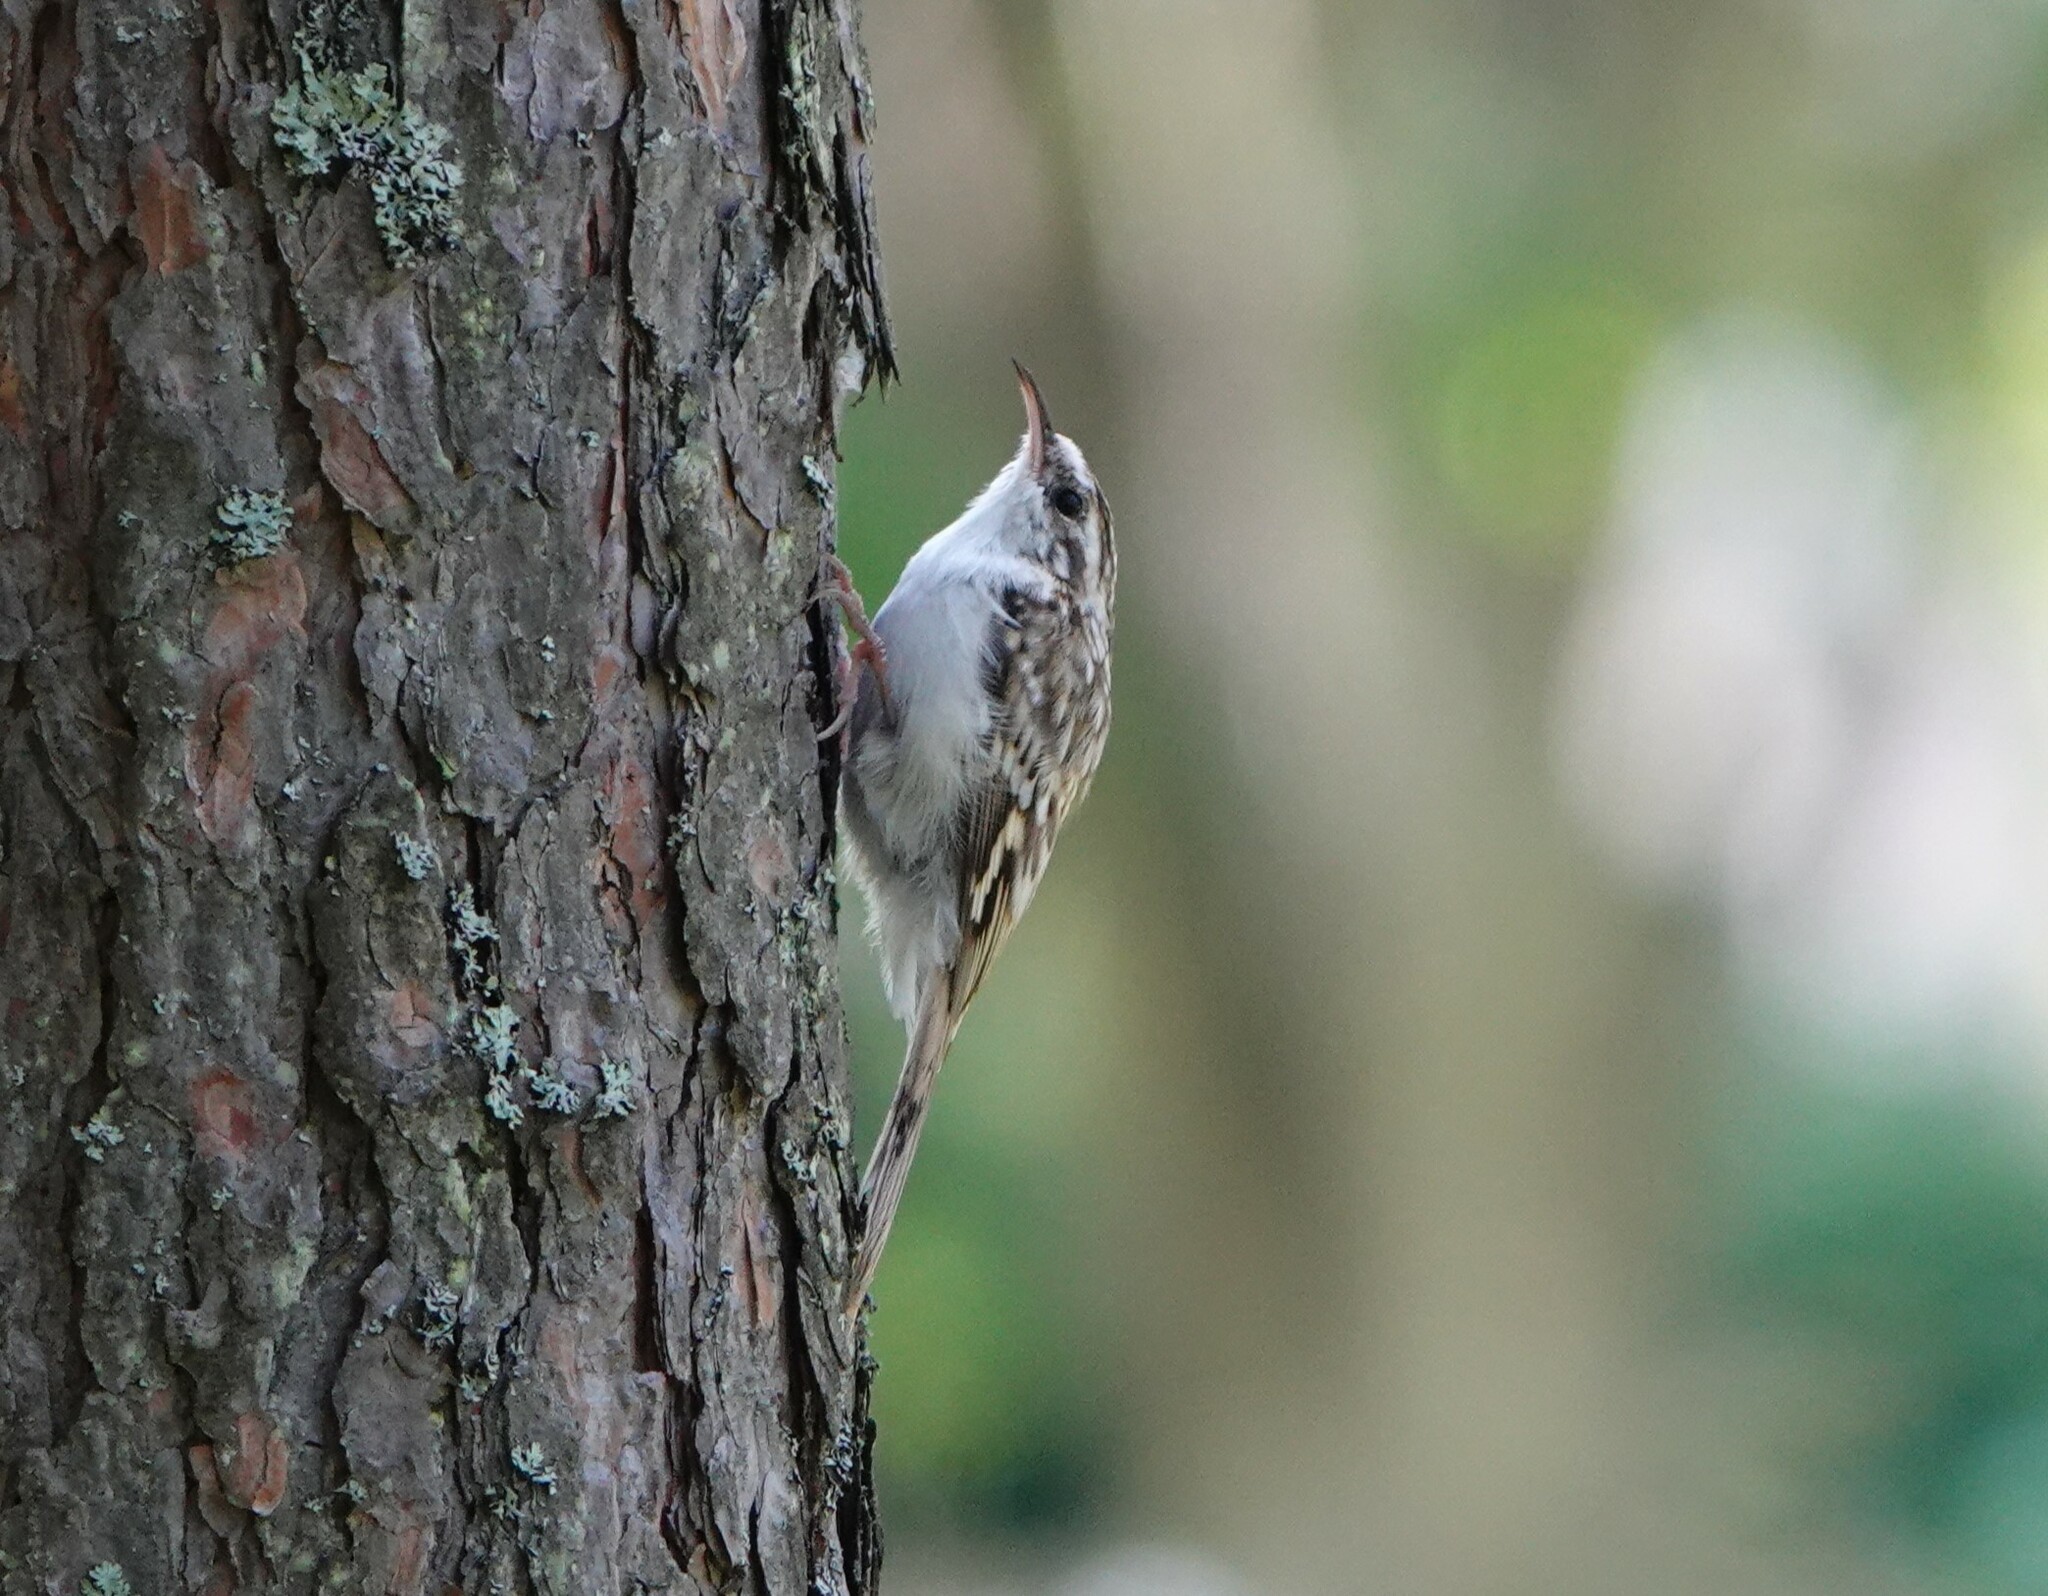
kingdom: Animalia
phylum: Chordata
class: Aves
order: Passeriformes
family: Certhiidae
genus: Certhia
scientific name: Certhia familiaris
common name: Eurasian treecreeper
